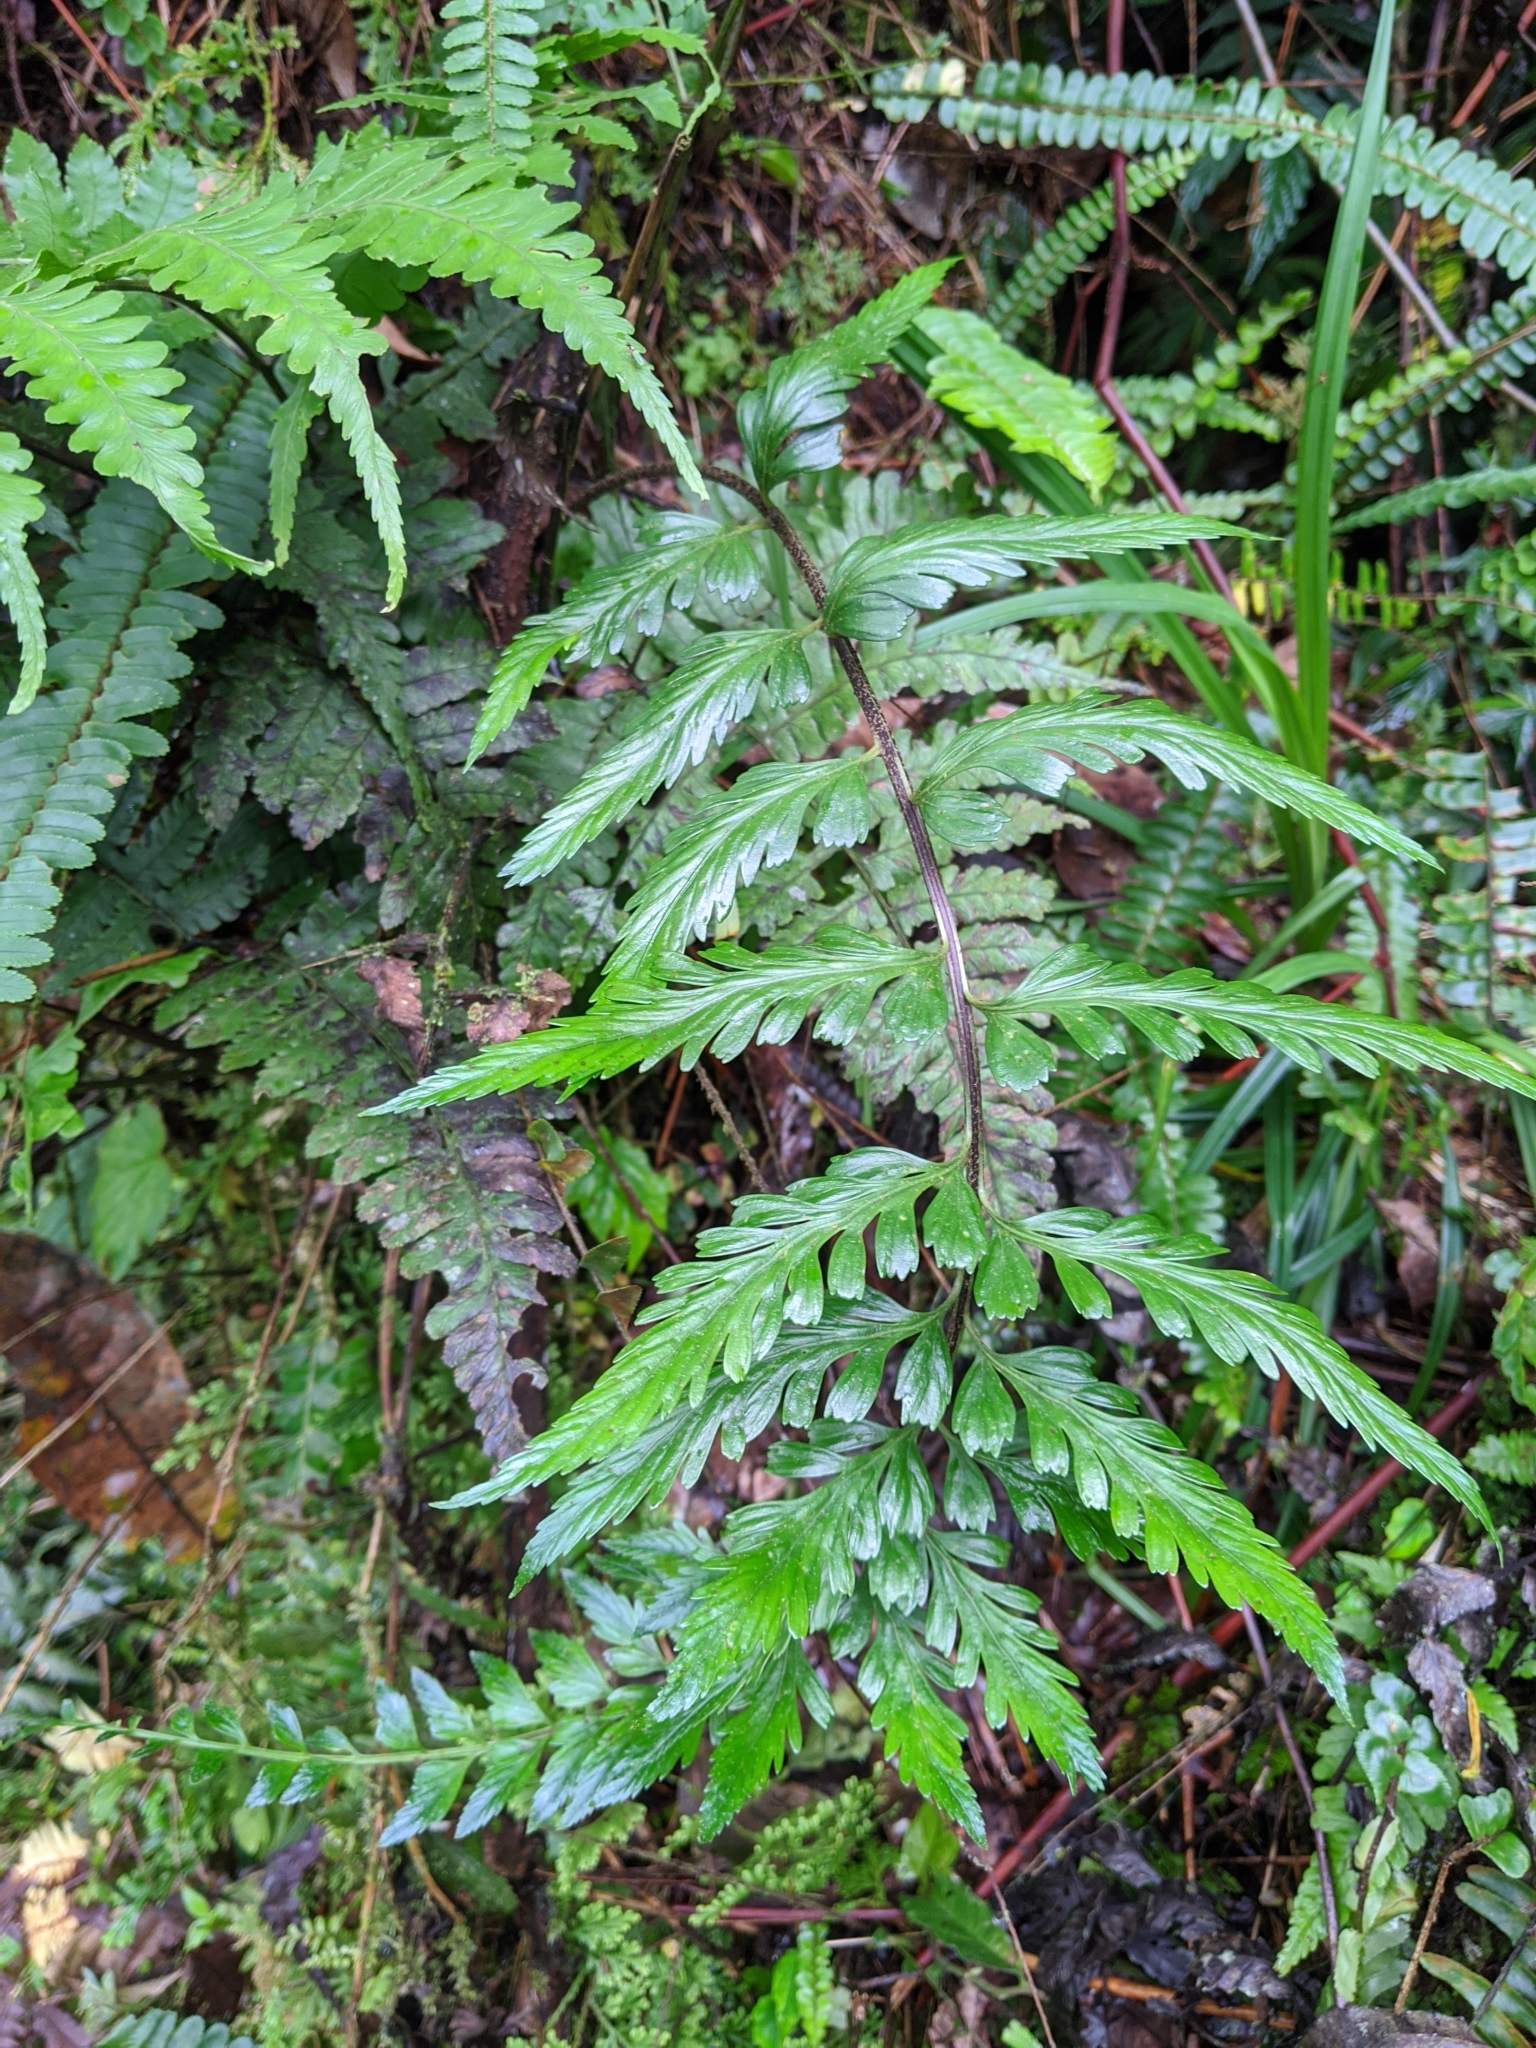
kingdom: Plantae
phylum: Tracheophyta
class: Polypodiopsida
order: Polypodiales
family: Aspleniaceae
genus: Asplenium
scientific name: Asplenium cuneatiforme
